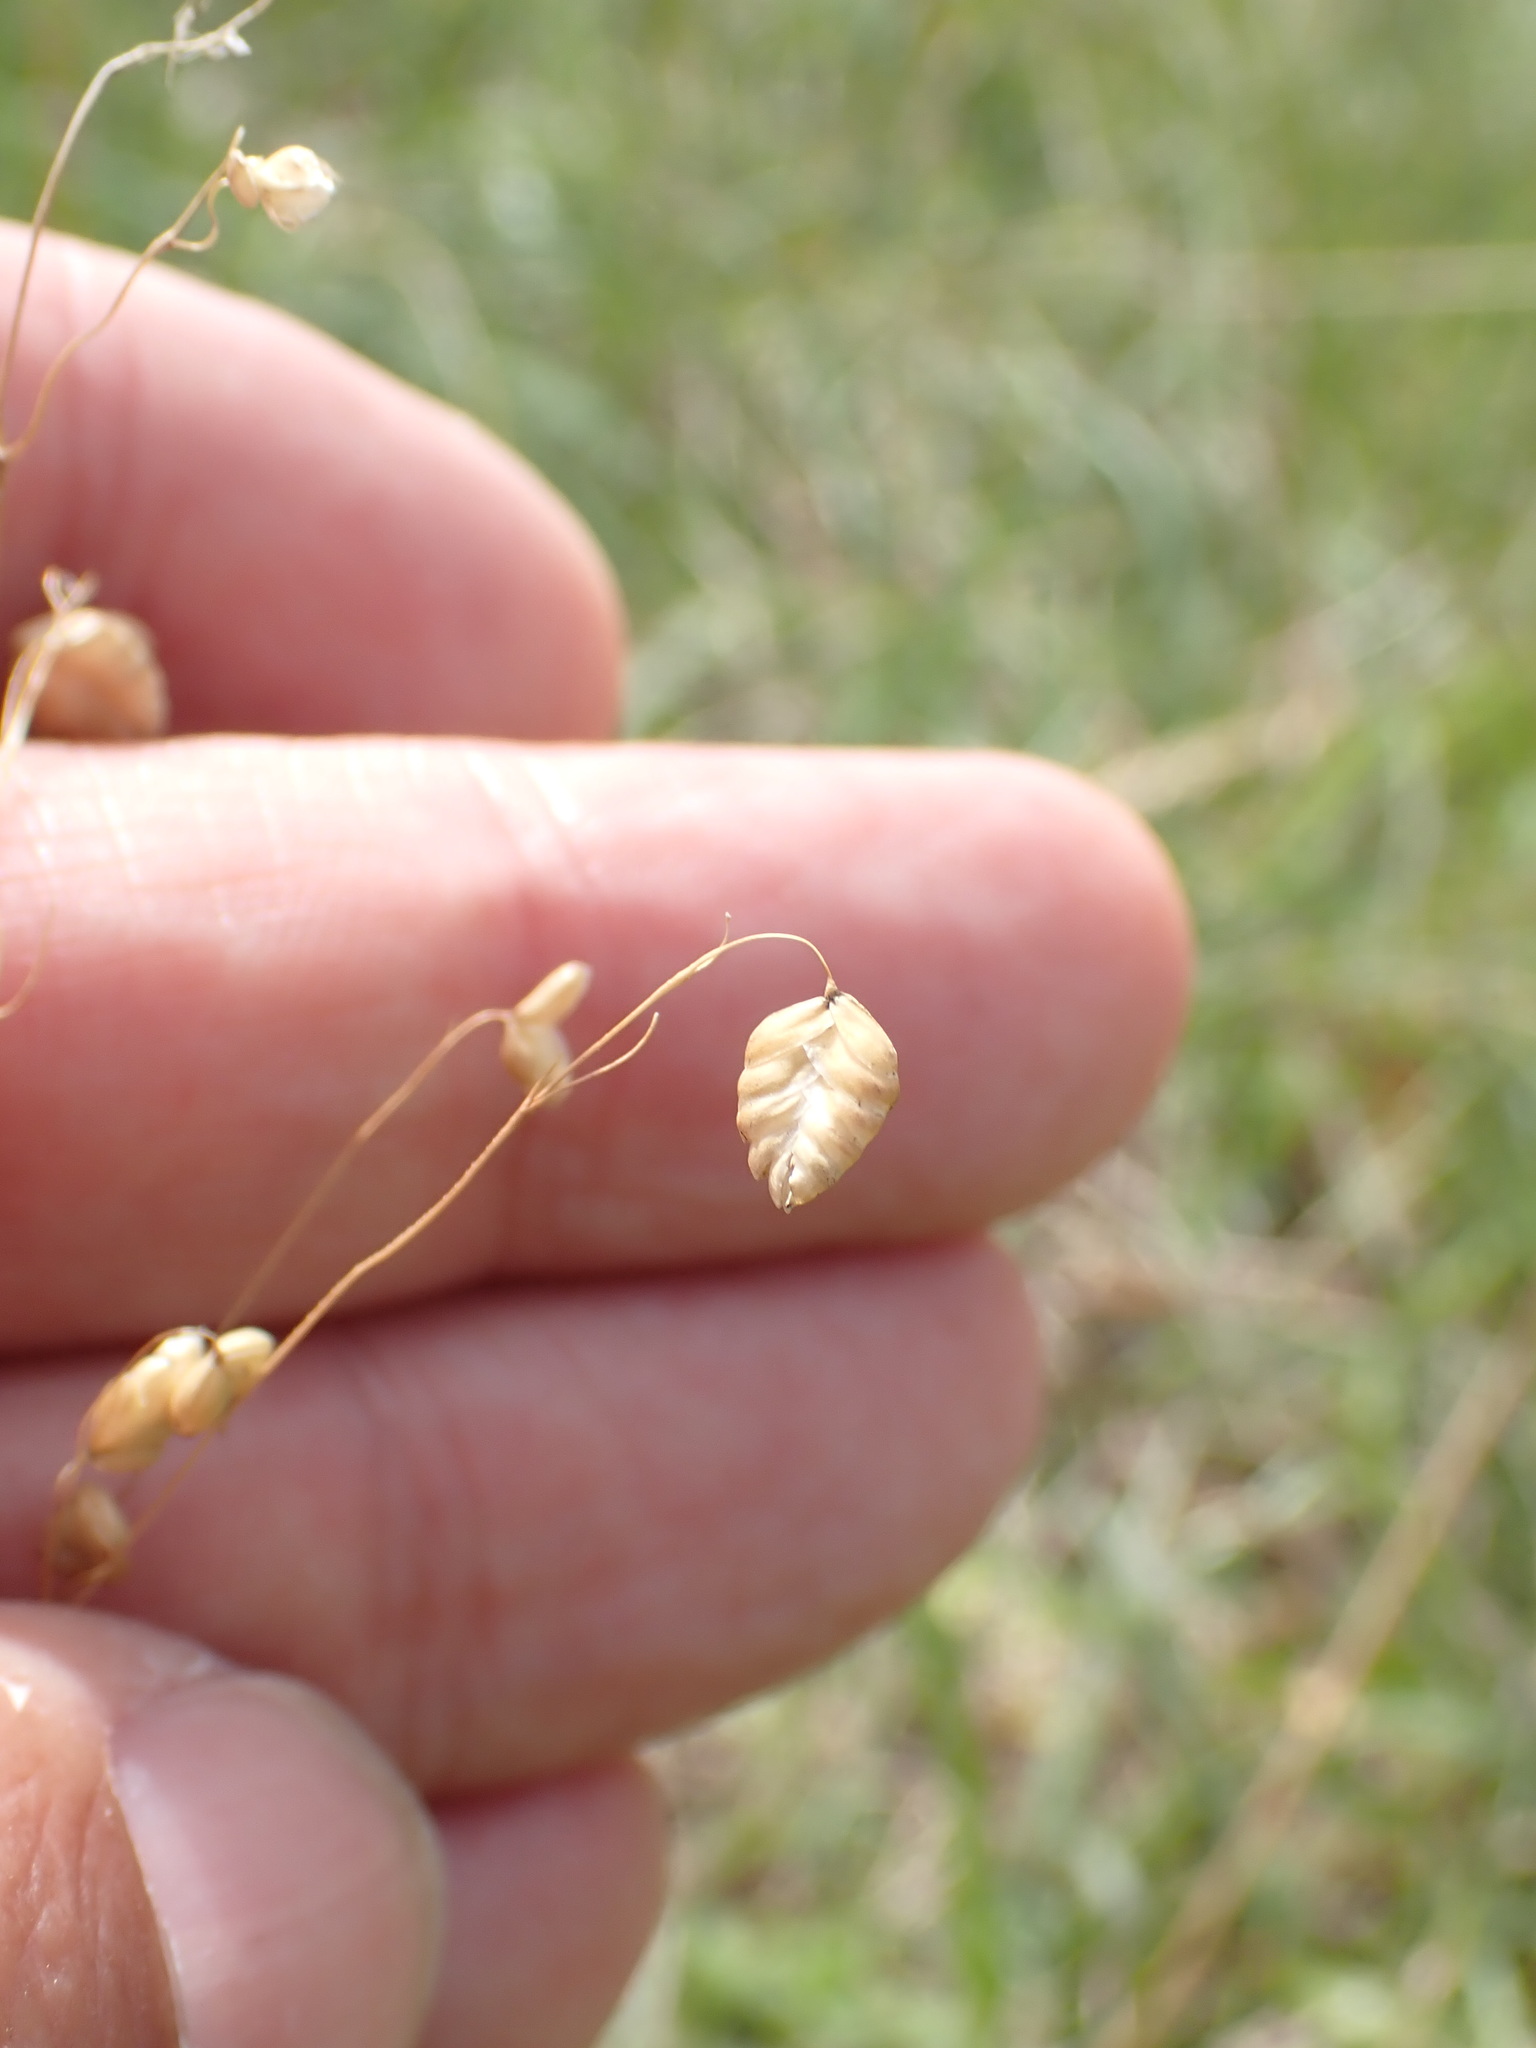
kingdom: Plantae
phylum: Tracheophyta
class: Liliopsida
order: Poales
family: Poaceae
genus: Briza
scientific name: Briza media
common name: Quaking grass
